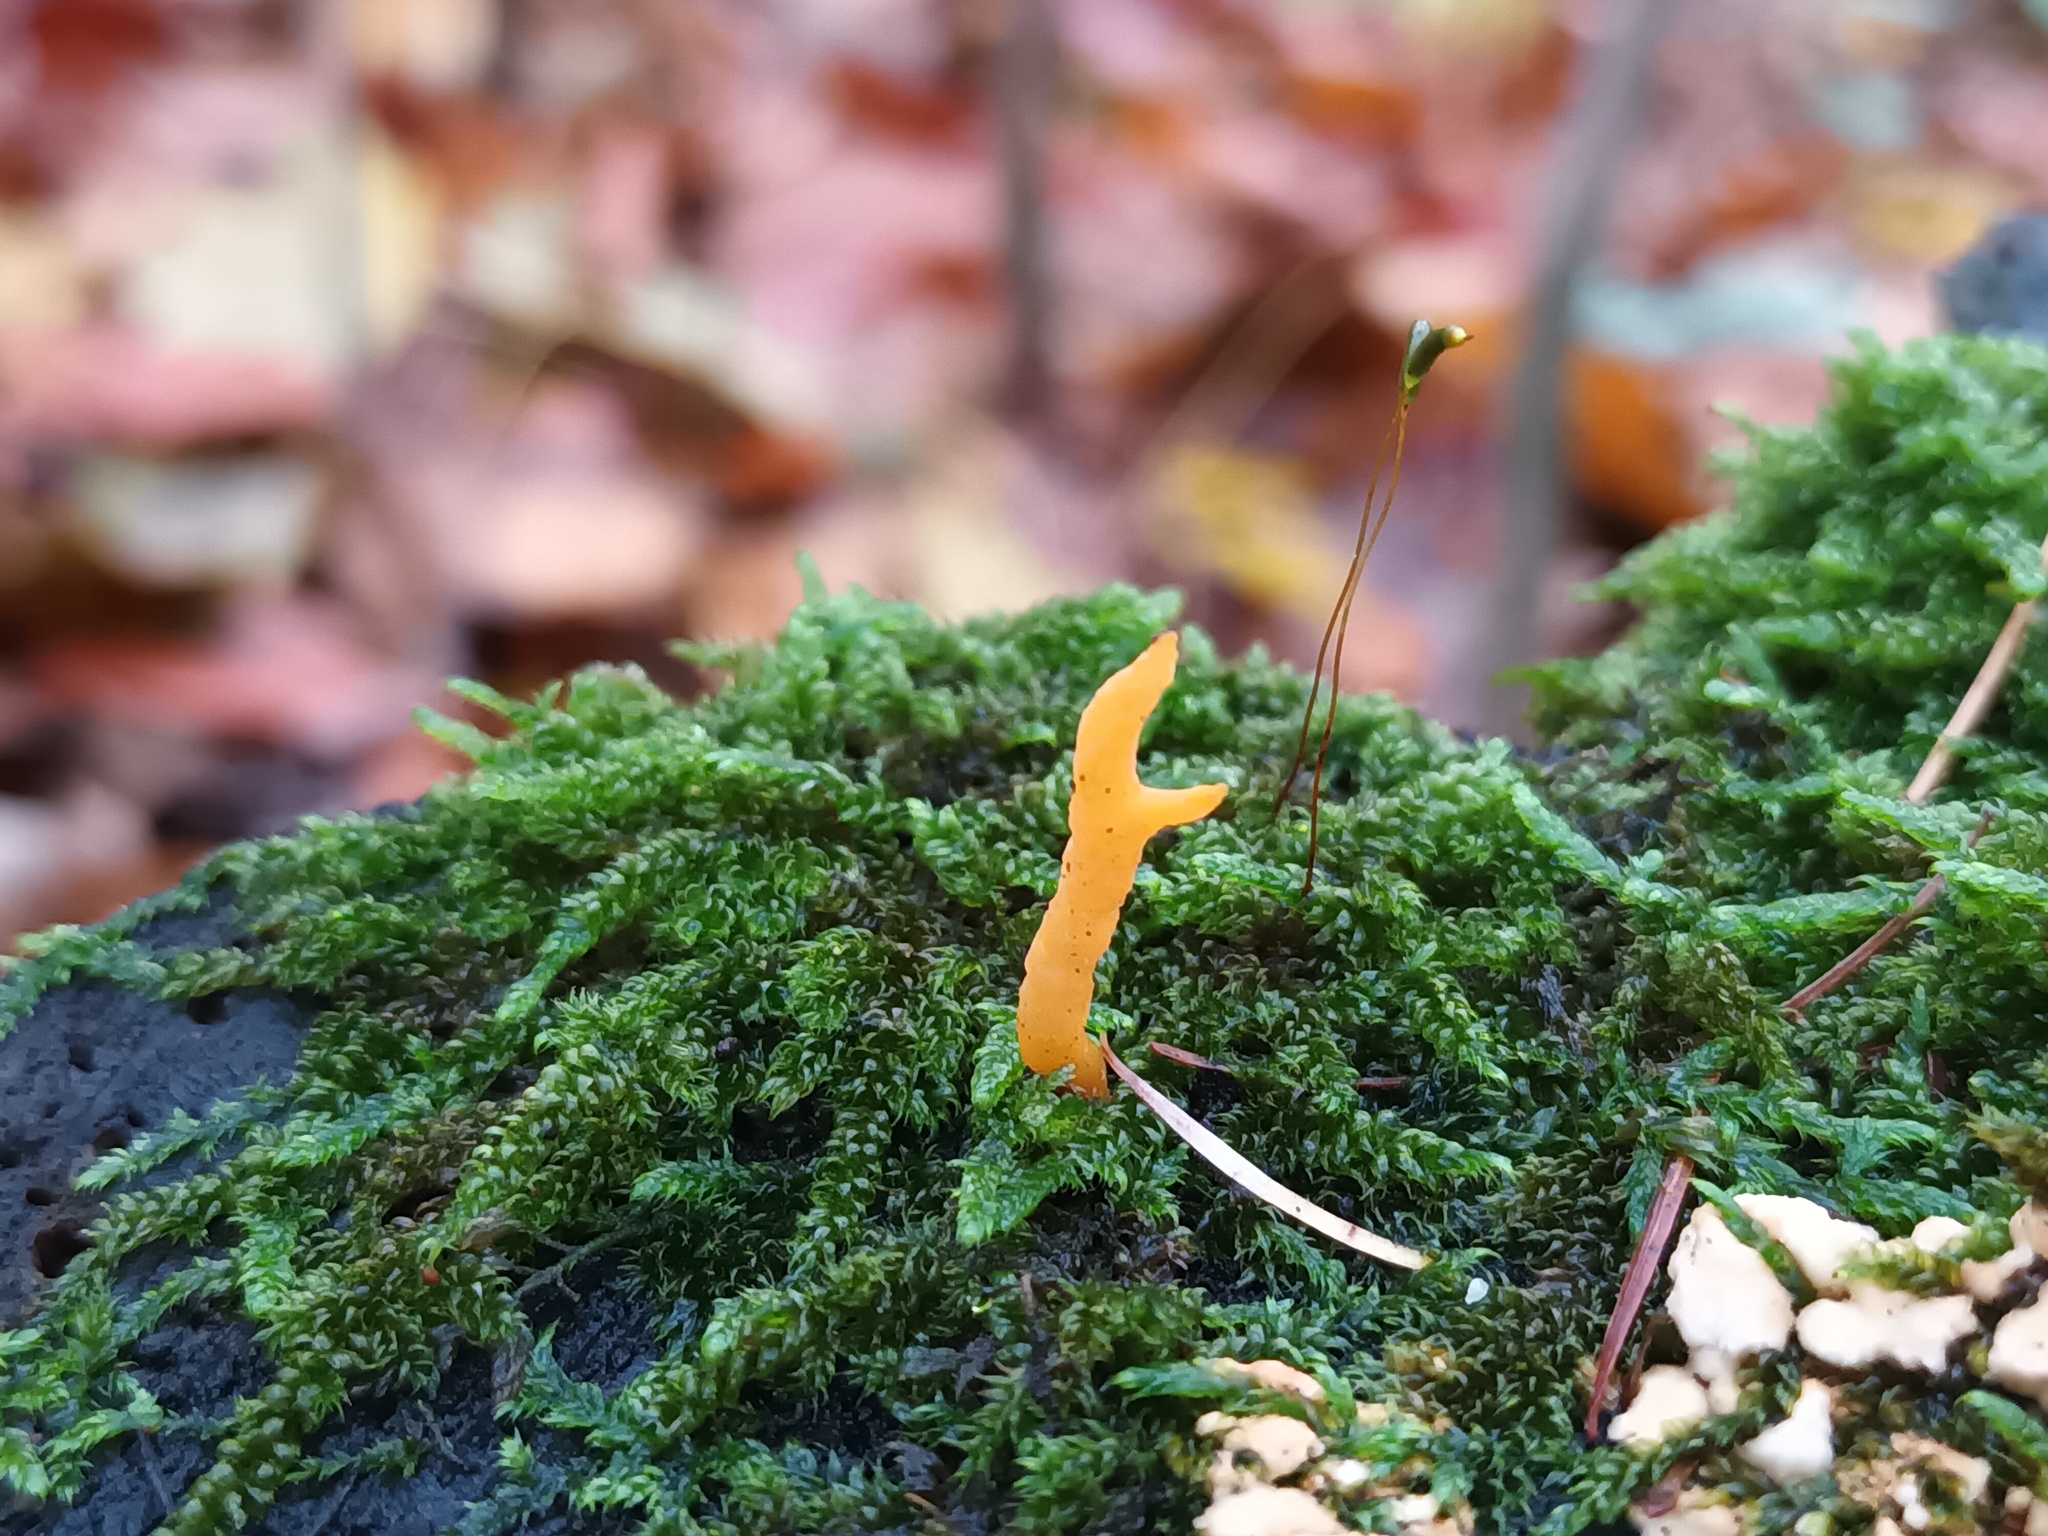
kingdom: Fungi
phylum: Basidiomycota
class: Dacrymycetes
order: Dacrymycetales
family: Dacrymycetaceae
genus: Calocera
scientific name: Calocera furcata
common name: Forked stagshorn
